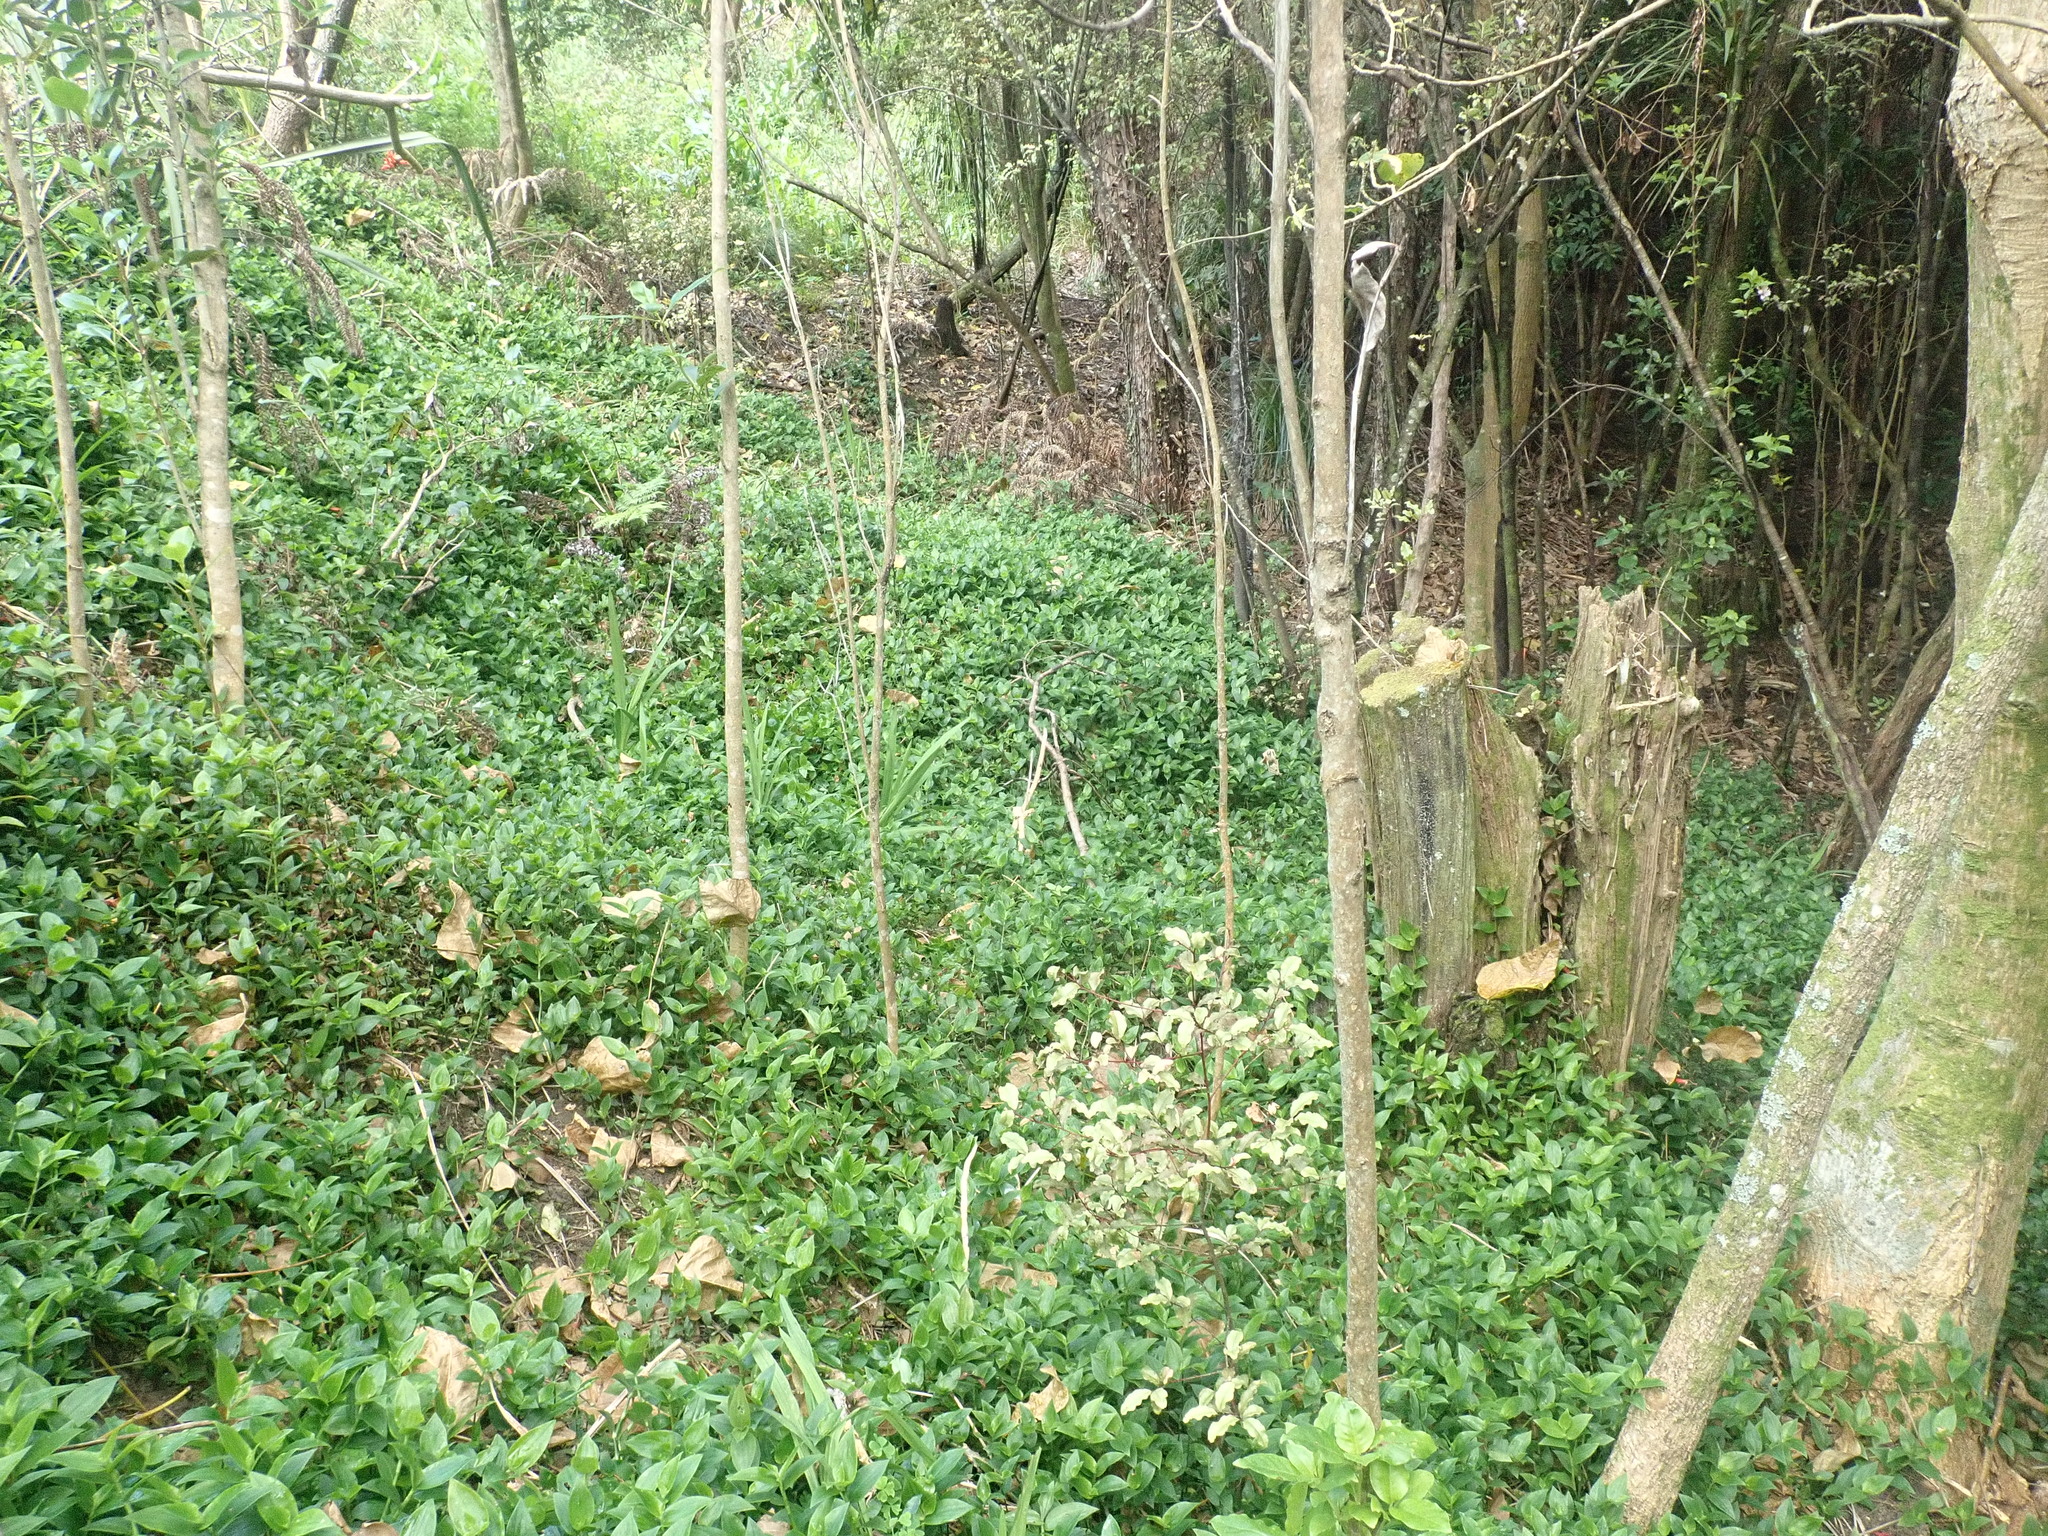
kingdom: Plantae
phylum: Tracheophyta
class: Magnoliopsida
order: Ericales
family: Primulaceae
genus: Myrsine
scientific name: Myrsine australis
